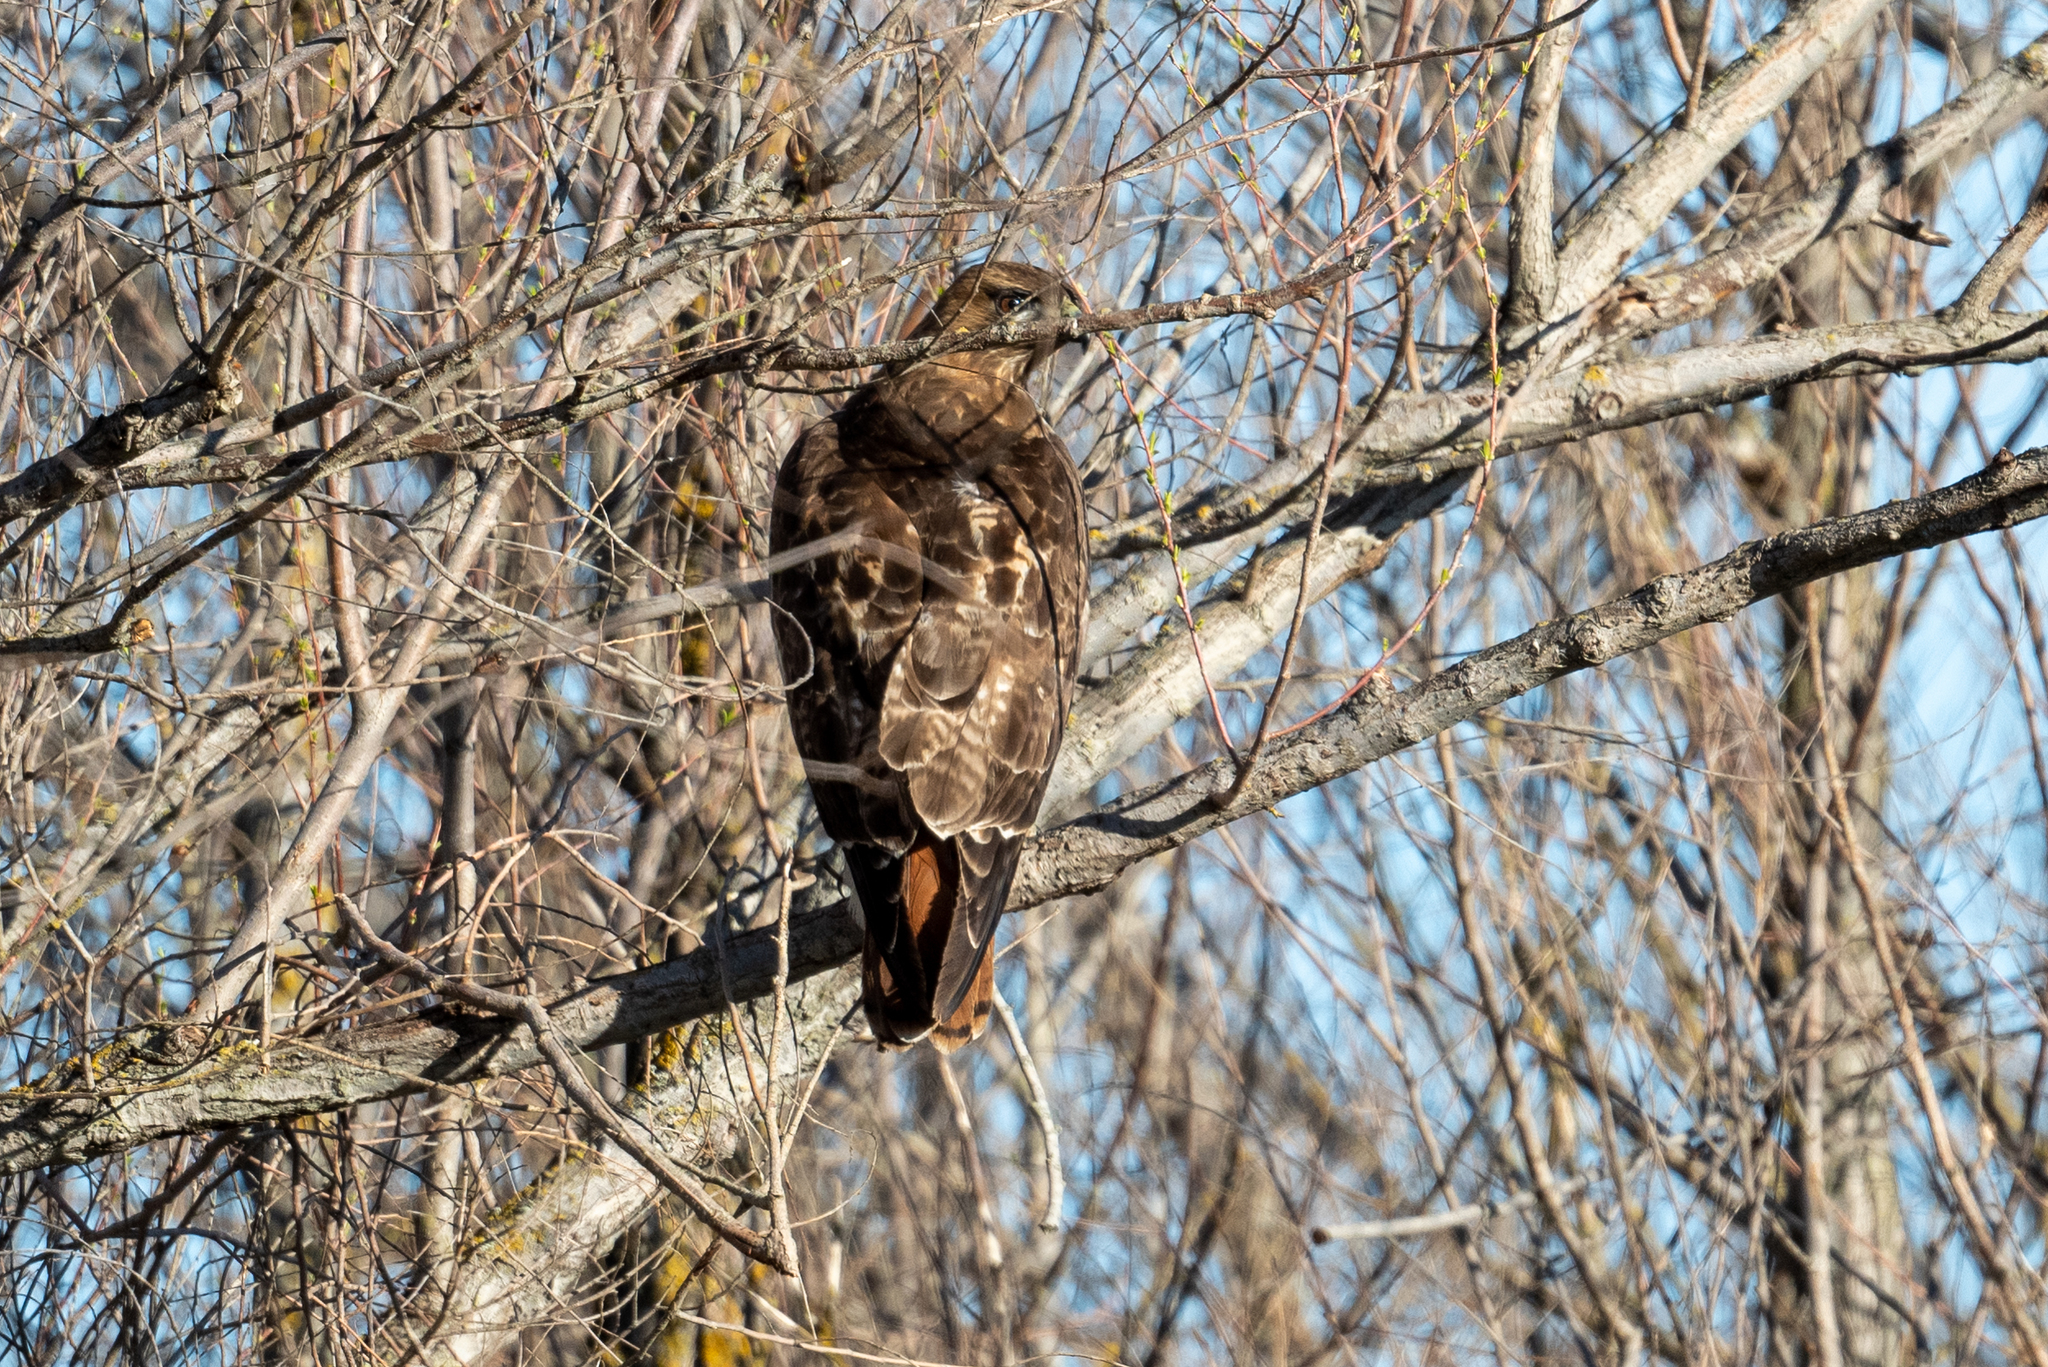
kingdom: Animalia
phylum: Chordata
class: Aves
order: Accipitriformes
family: Accipitridae
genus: Buteo
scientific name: Buteo jamaicensis
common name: Red-tailed hawk
